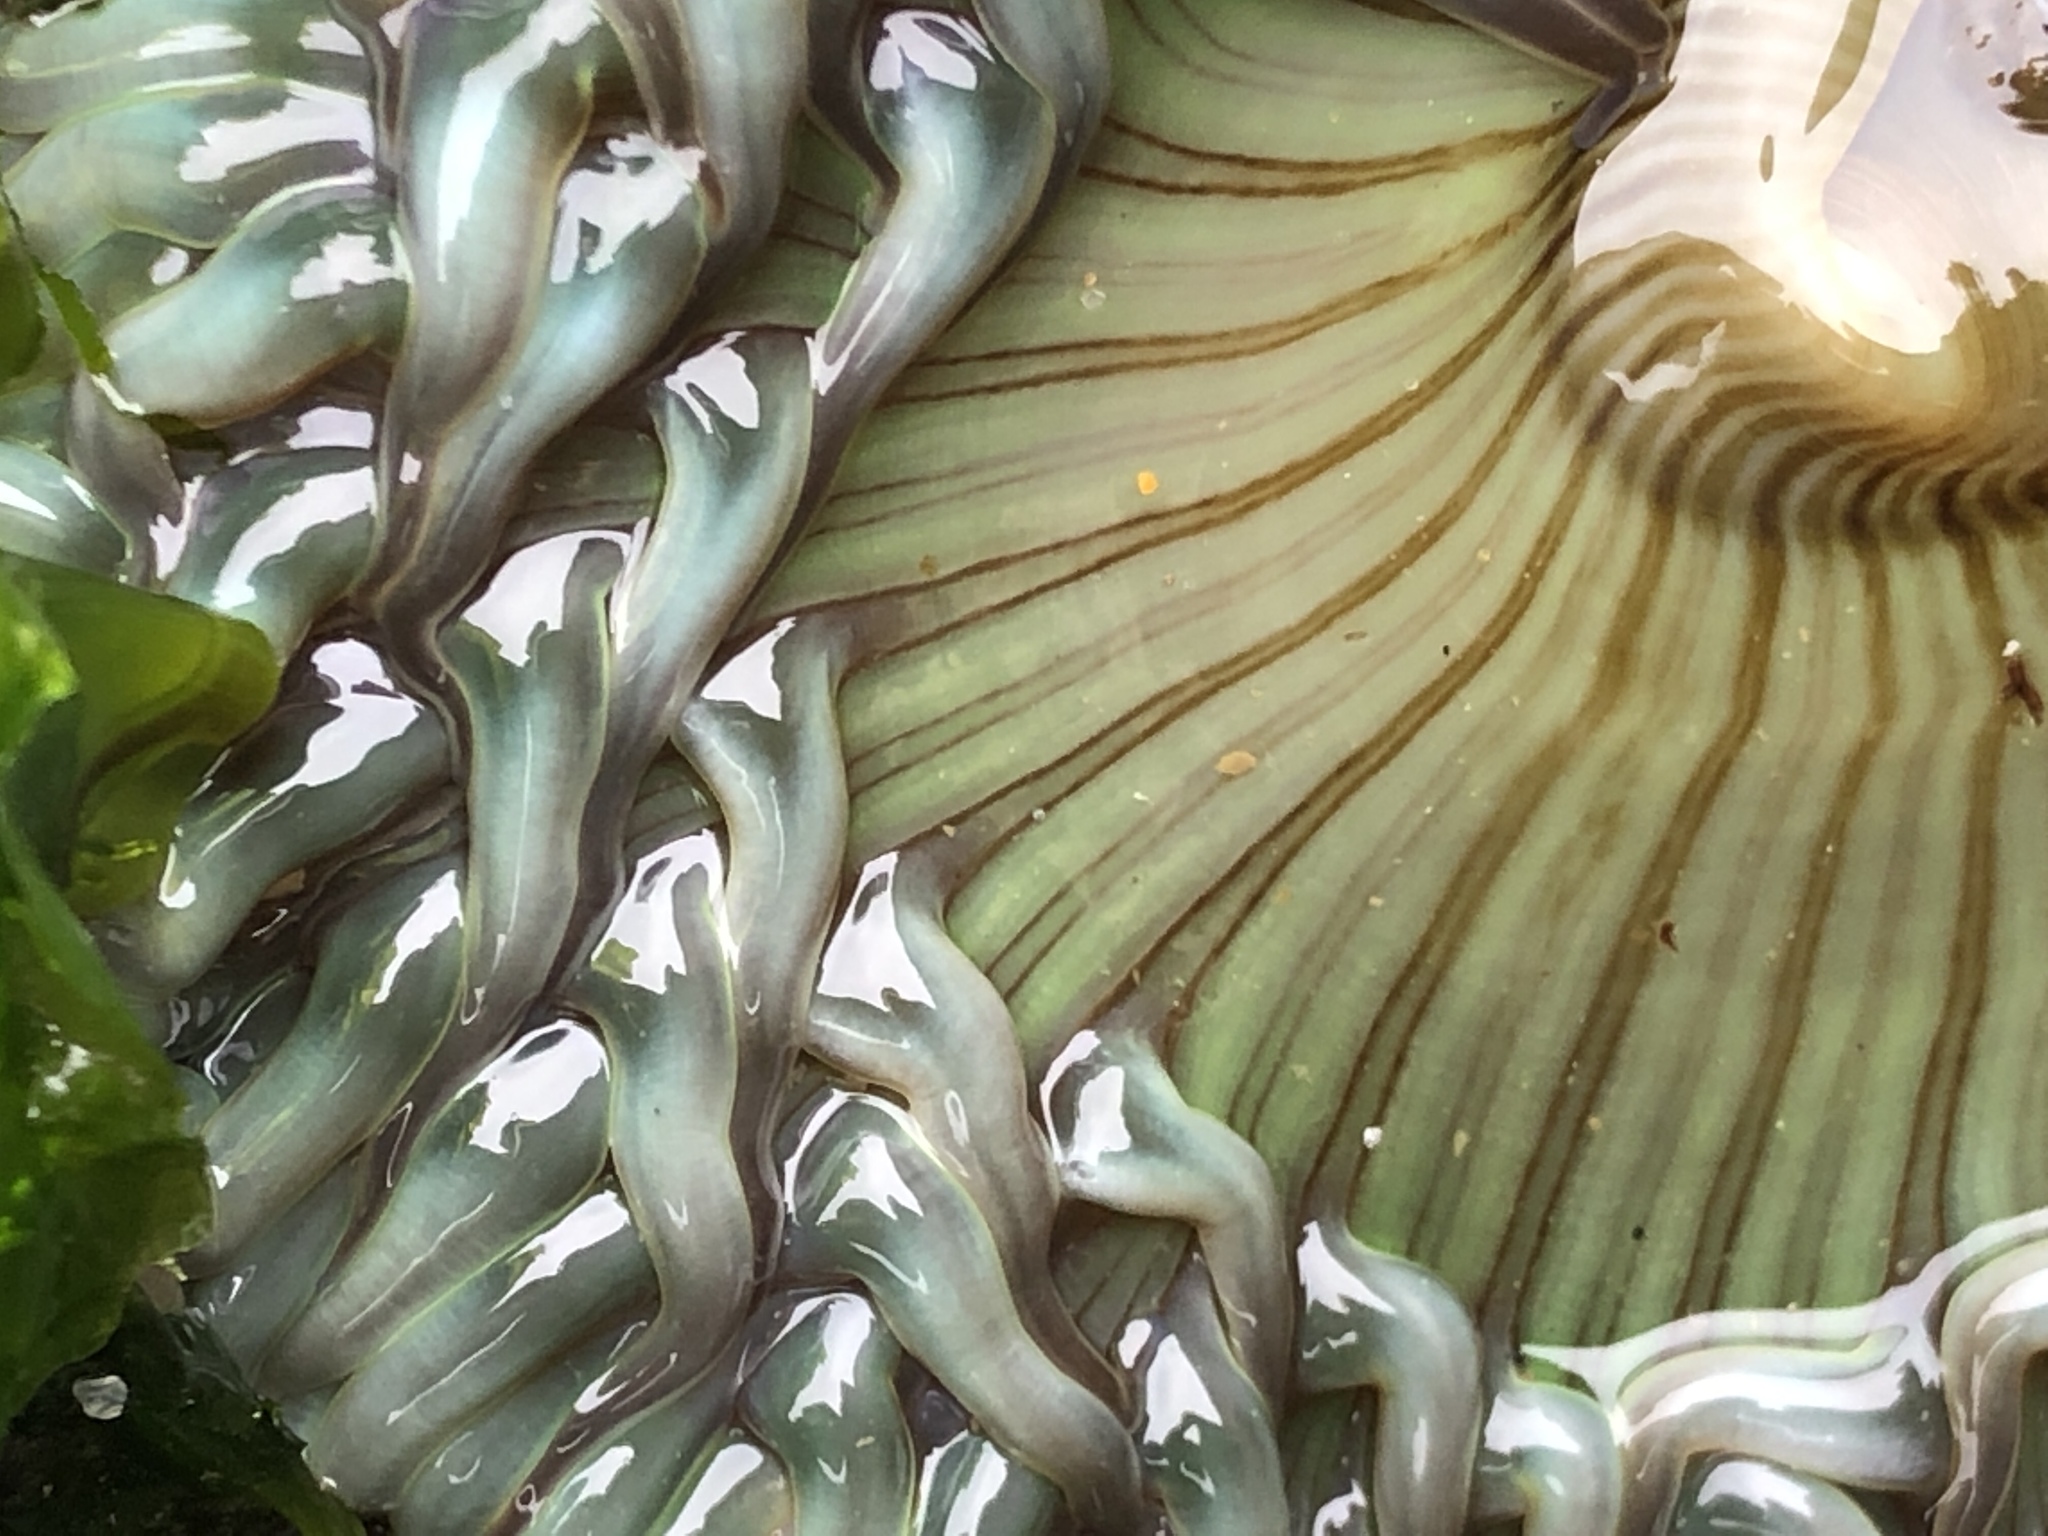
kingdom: Animalia
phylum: Cnidaria
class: Anthozoa
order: Actiniaria
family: Actiniidae
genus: Anthopleura
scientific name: Anthopleura sola
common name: Sun anemone
